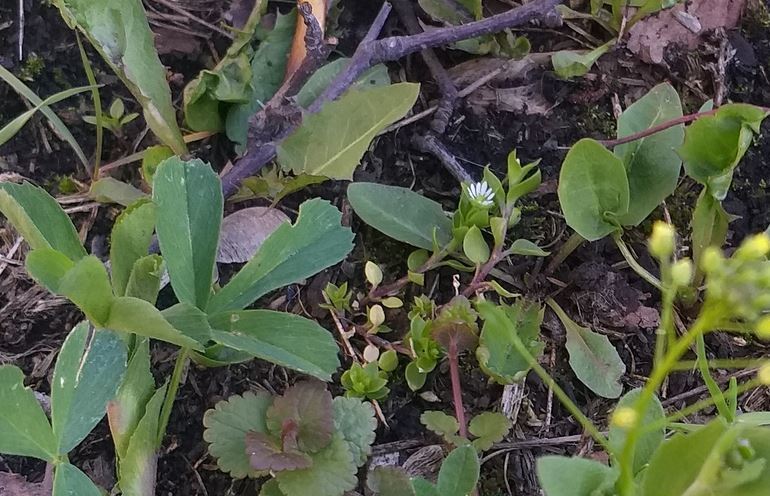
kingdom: Plantae
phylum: Tracheophyta
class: Magnoliopsida
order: Caryophyllales
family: Caryophyllaceae
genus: Stellaria
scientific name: Stellaria media
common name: Common chickweed
